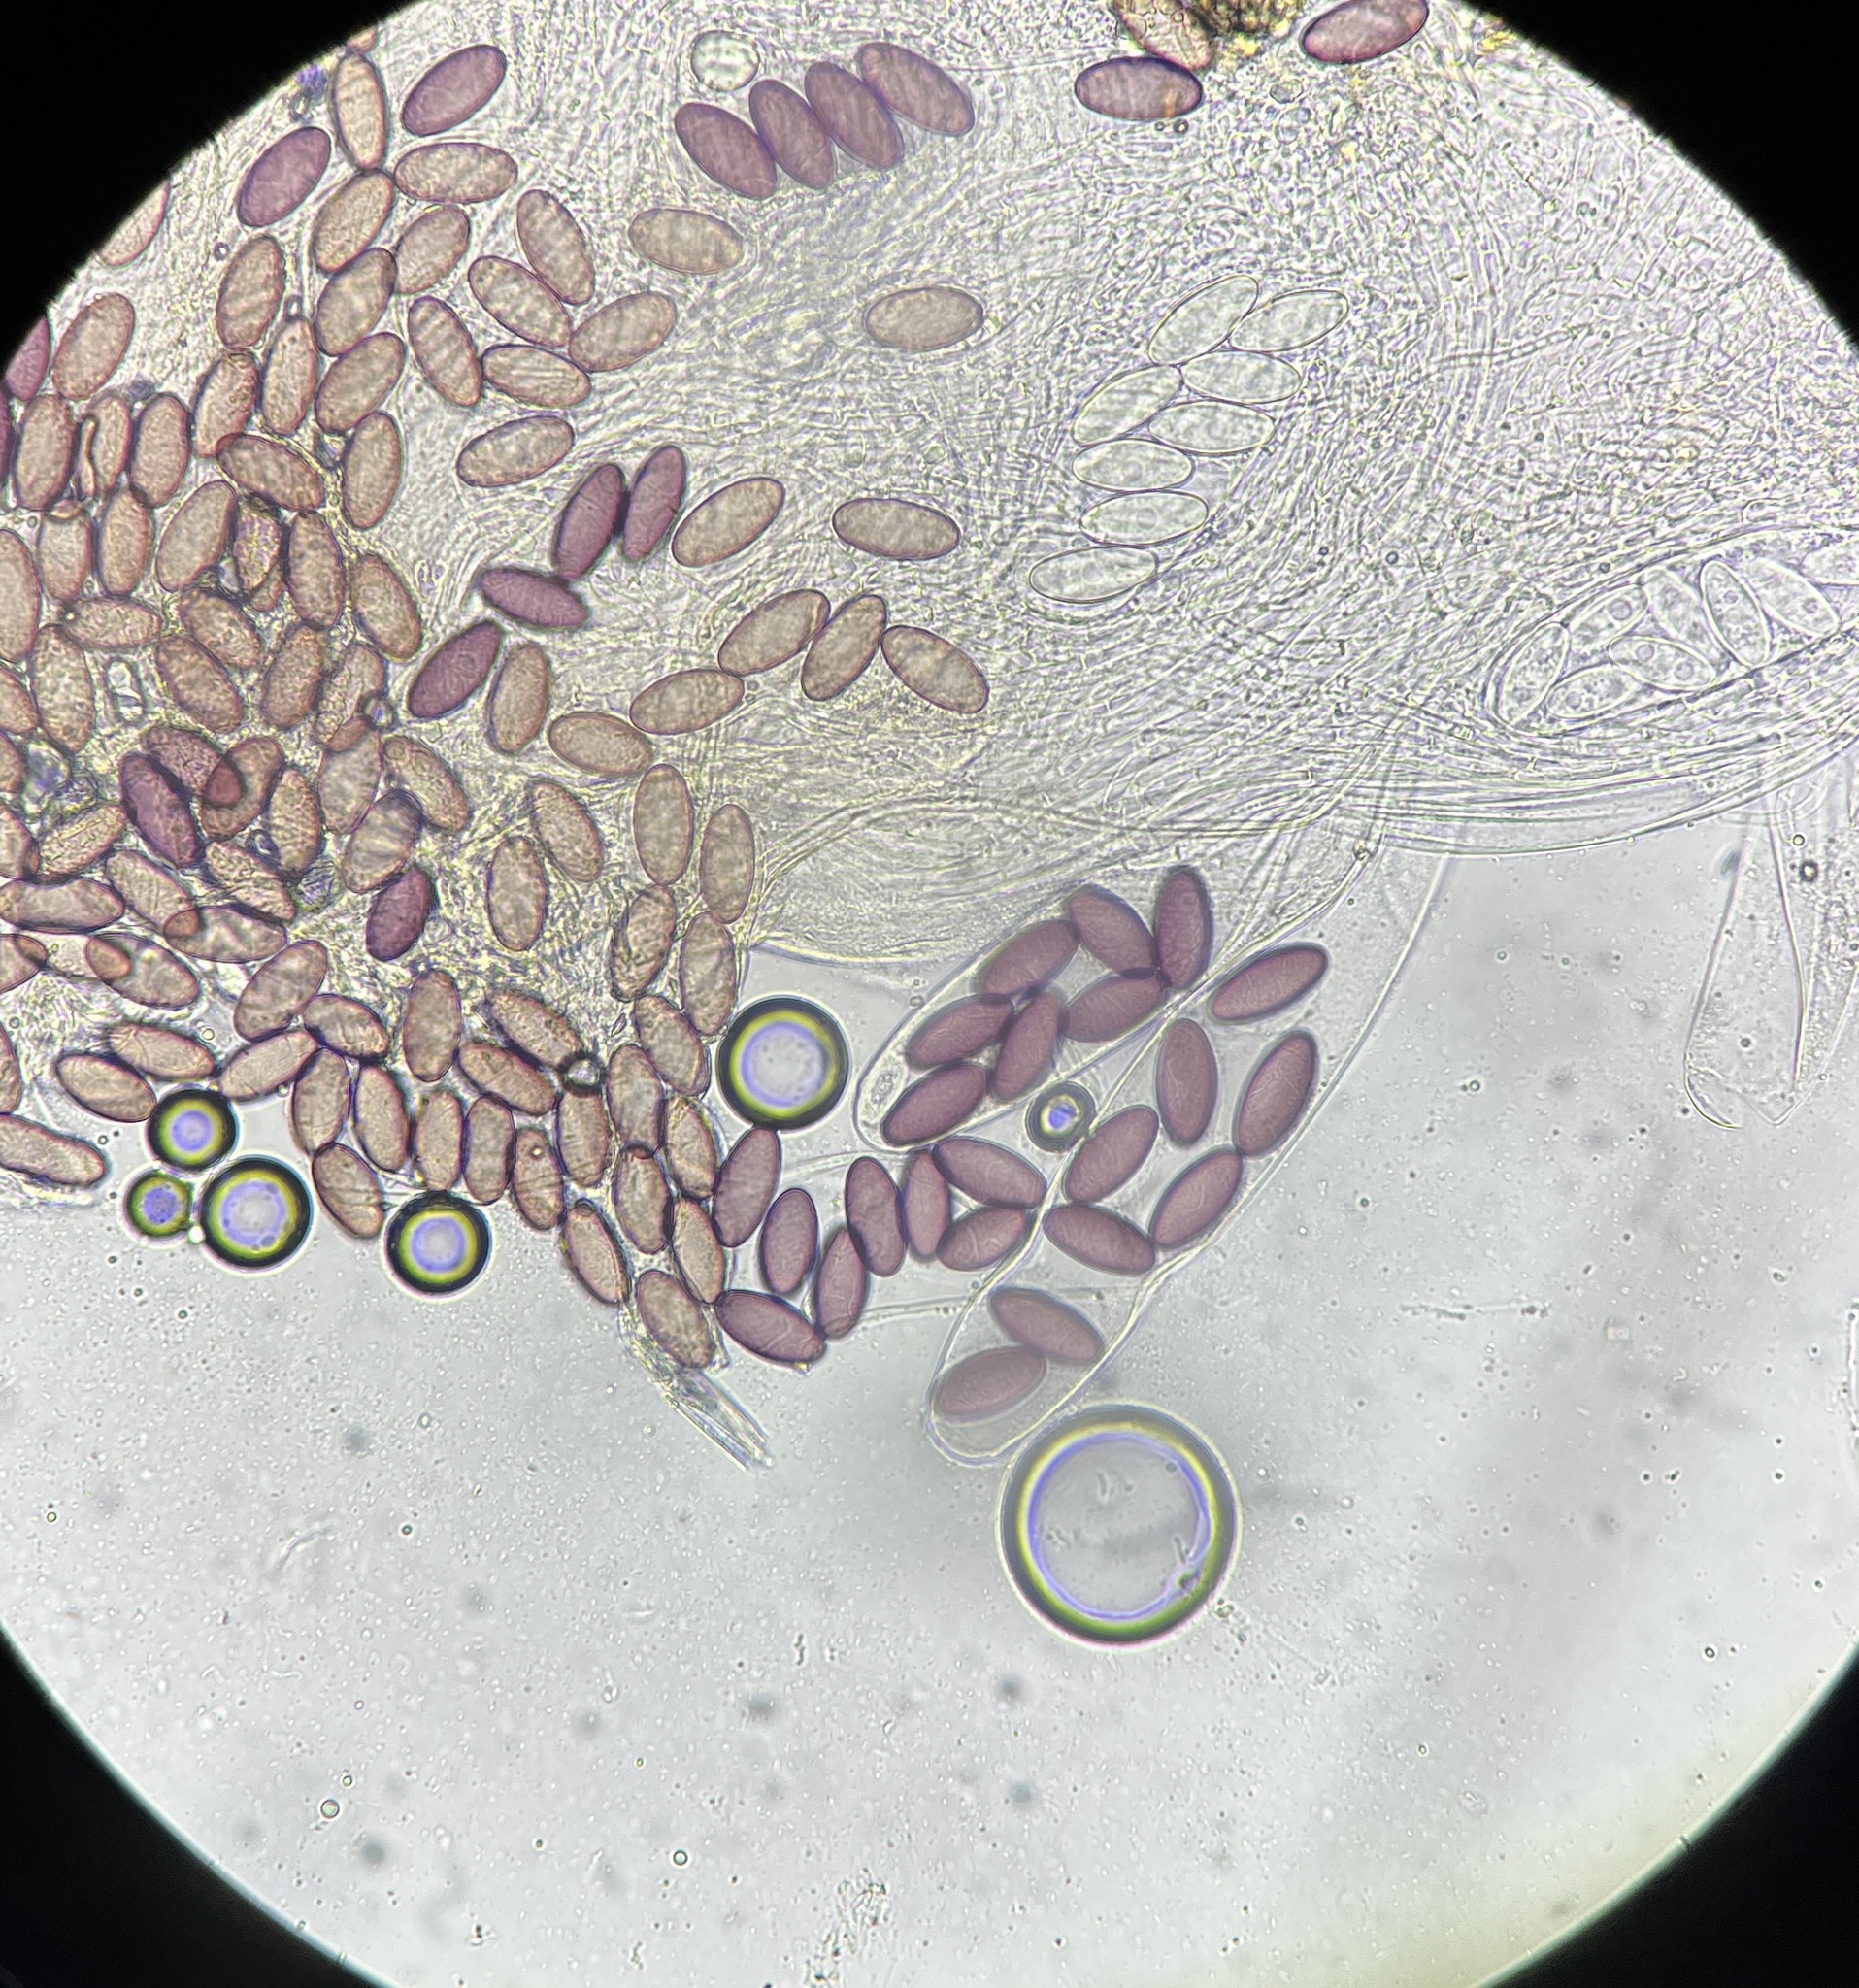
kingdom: Fungi
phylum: Ascomycota
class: Pezizomycetes
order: Pezizales
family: Ascobolaceae
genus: Ascobolus
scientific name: Ascobolus degluptus
